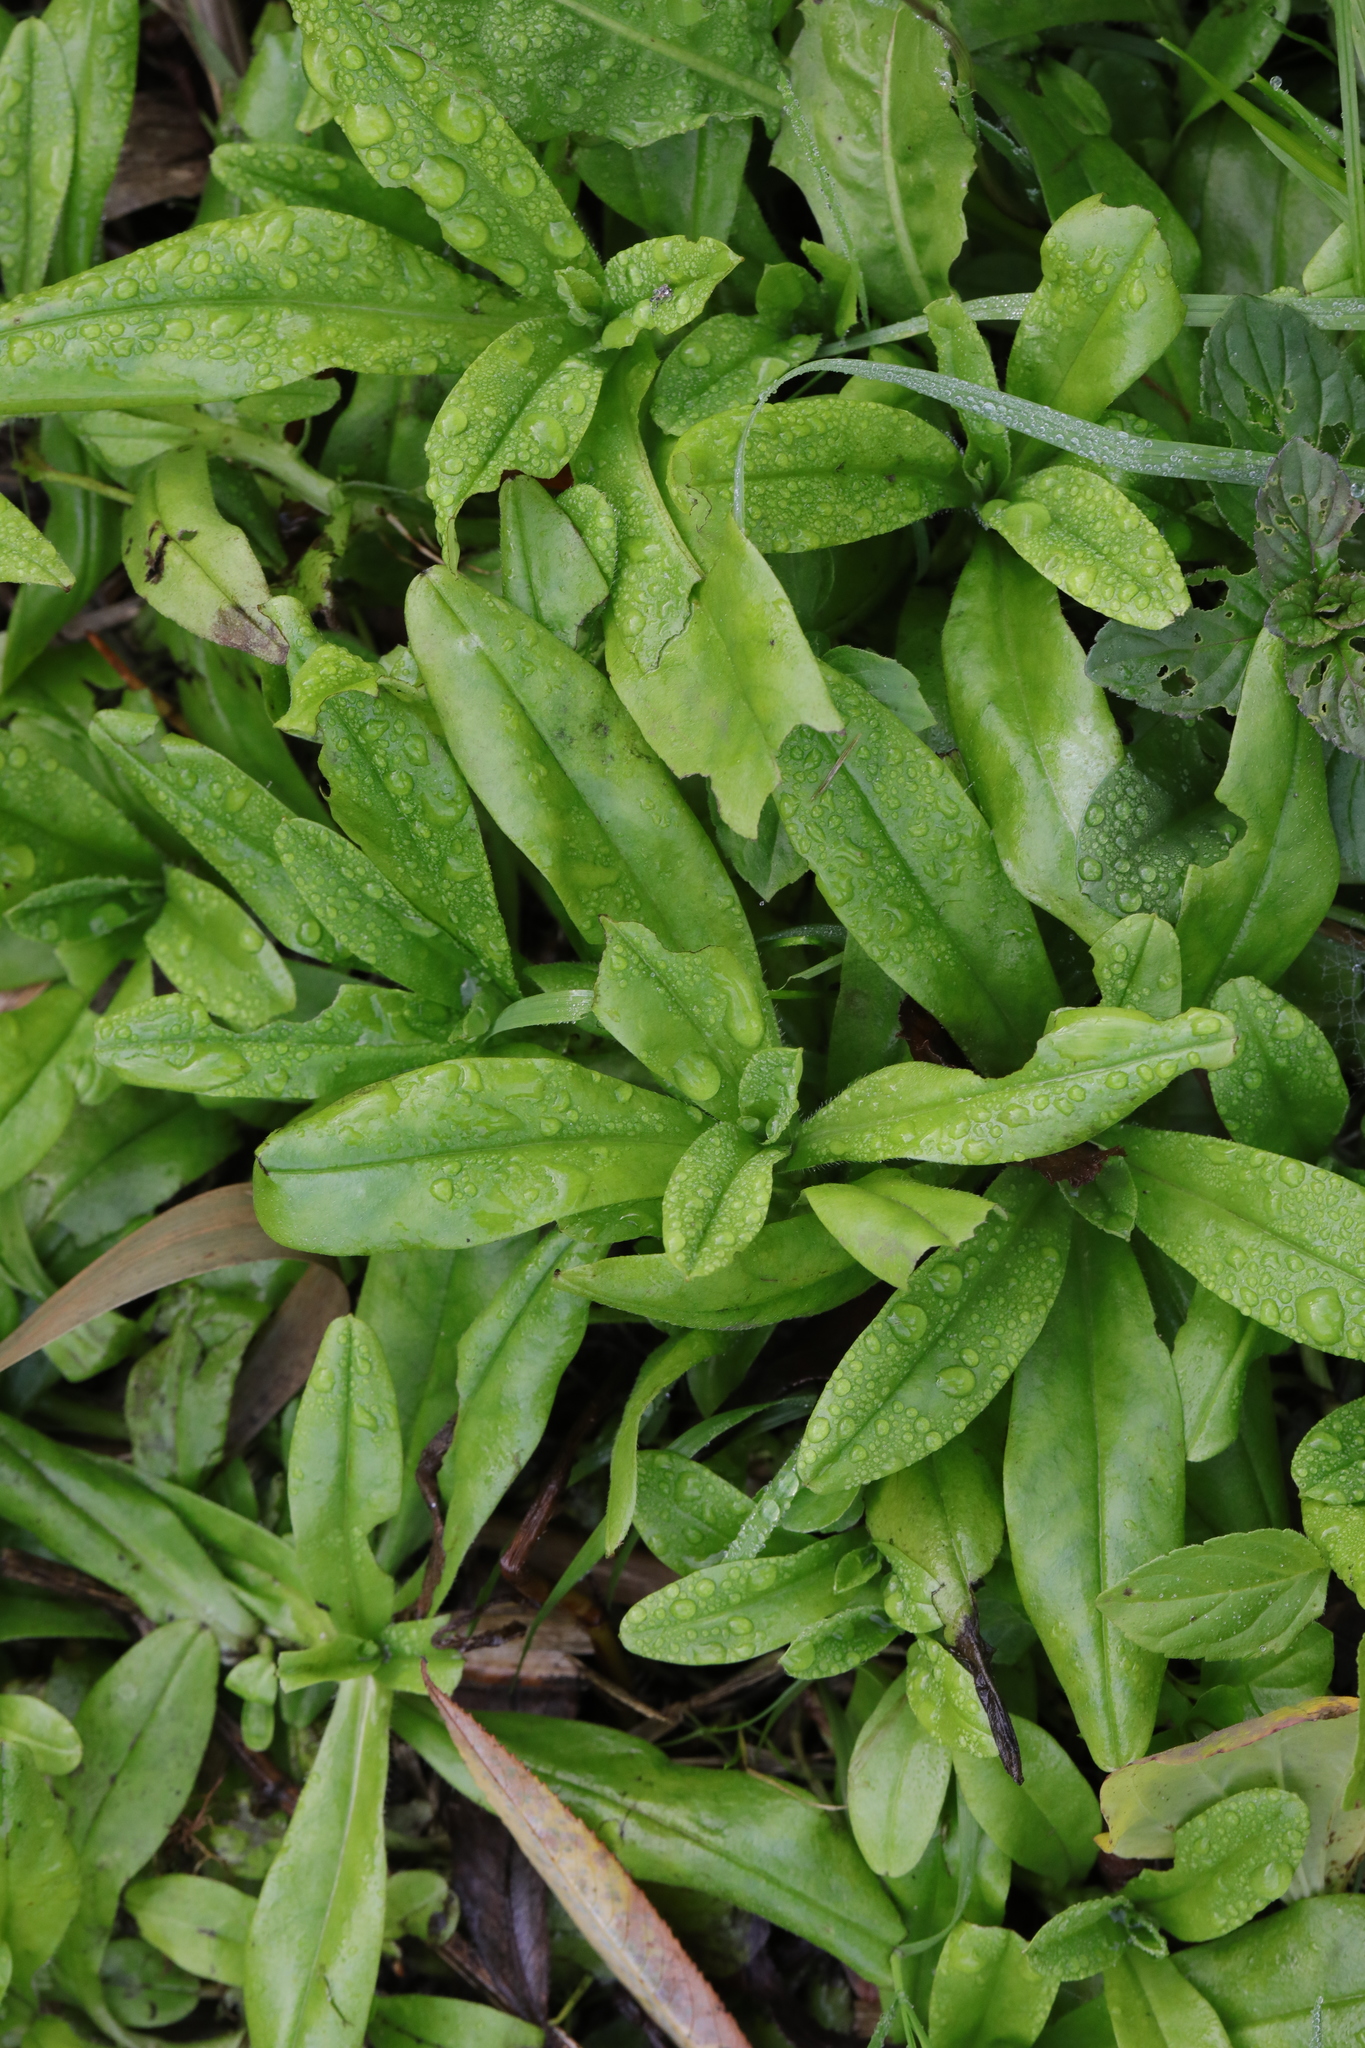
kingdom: Plantae
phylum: Tracheophyta
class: Magnoliopsida
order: Boraginales
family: Boraginaceae
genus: Myosotis
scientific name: Myosotis scorpioides
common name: Water forget-me-not
